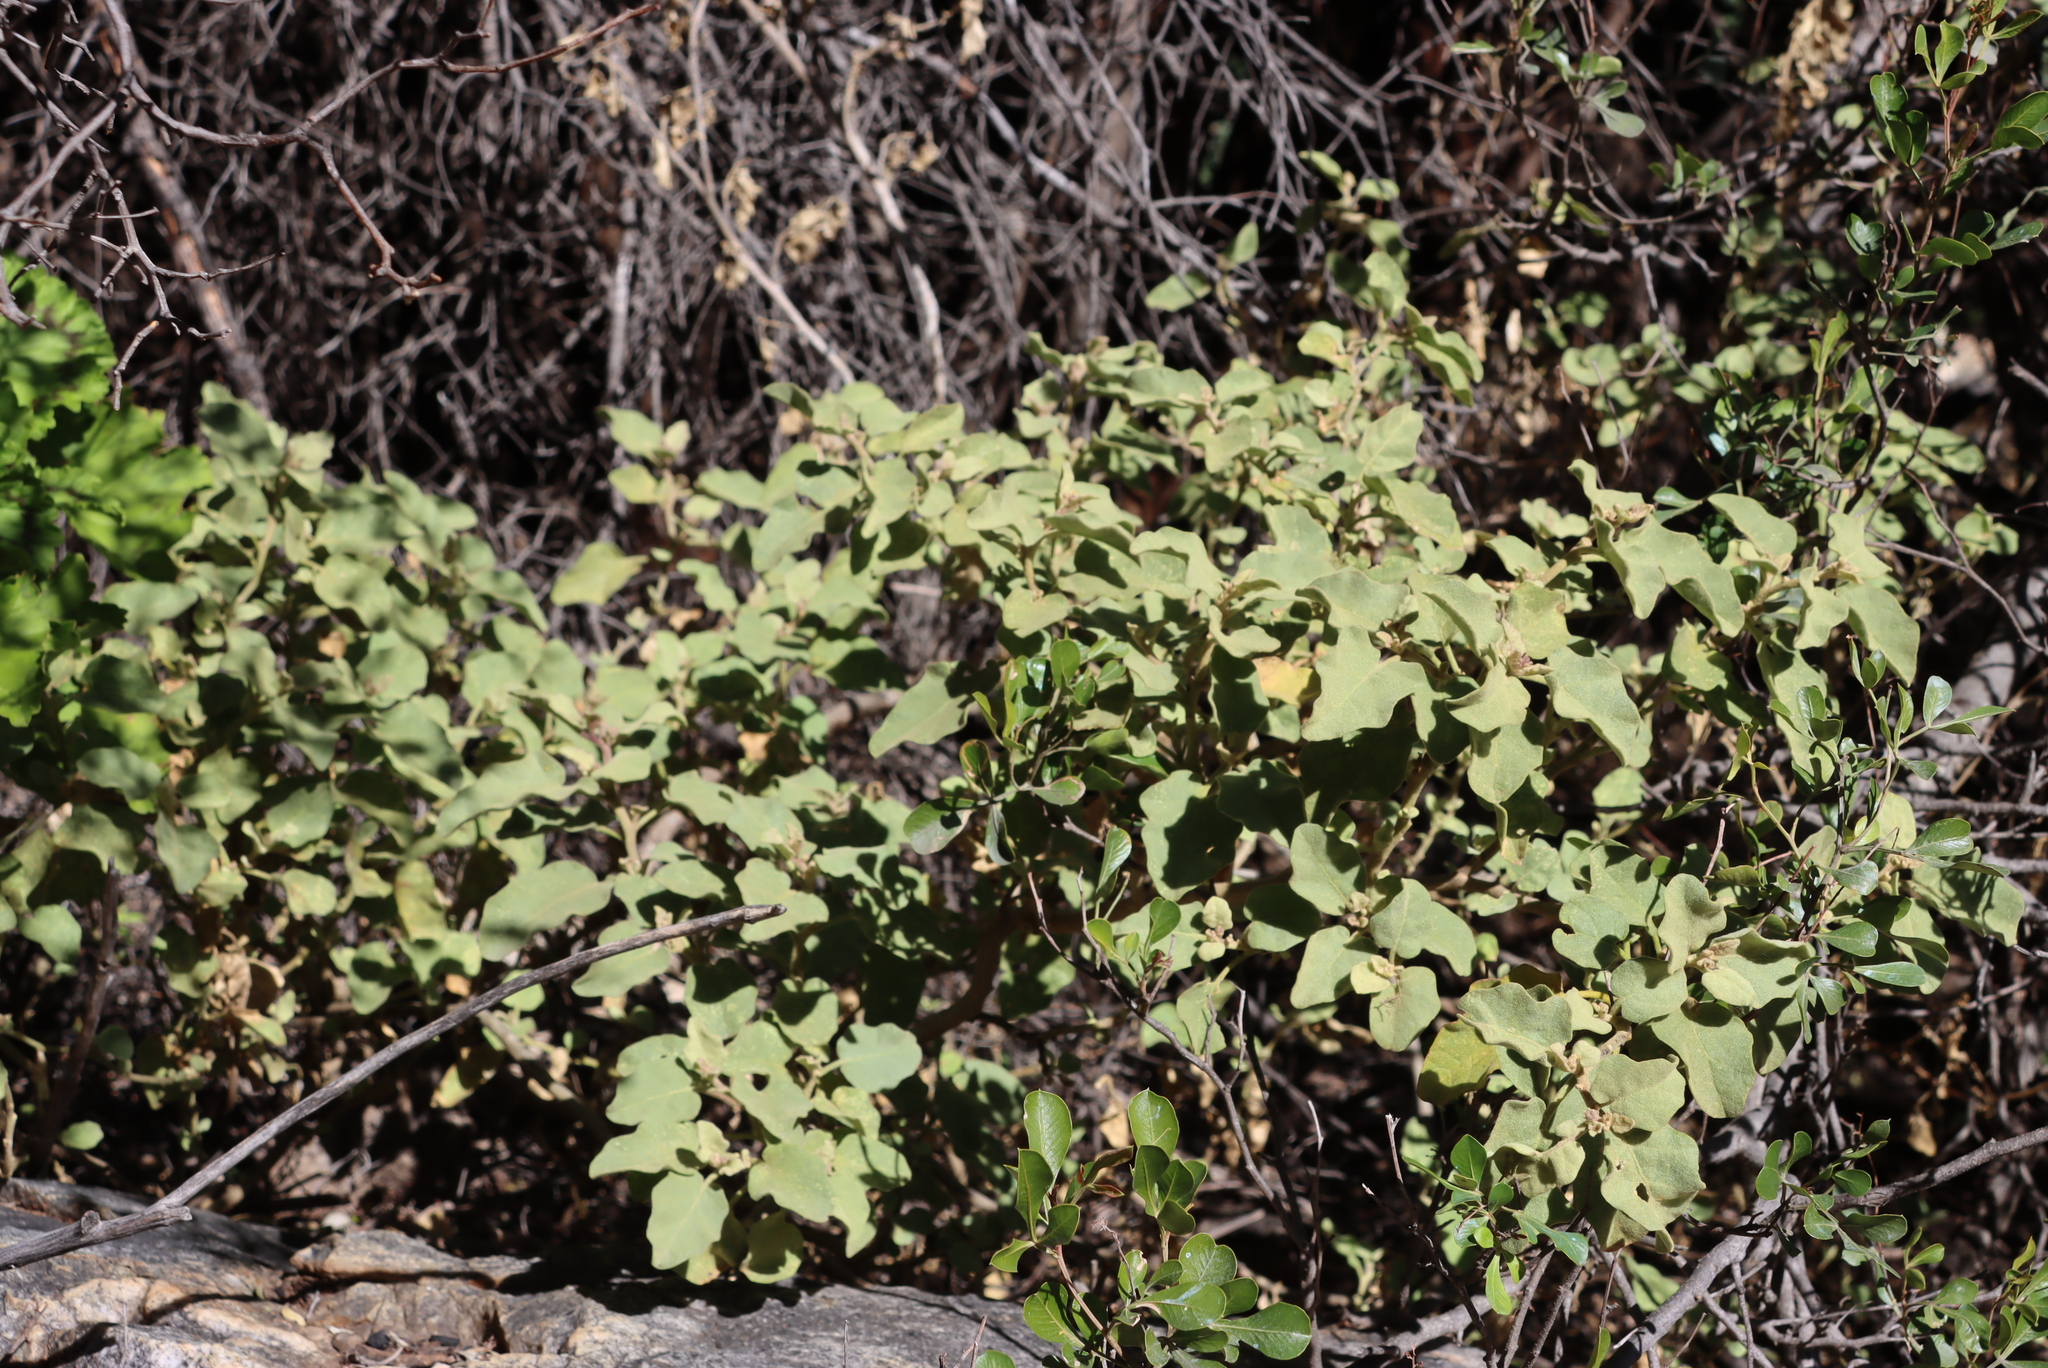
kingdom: Plantae
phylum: Tracheophyta
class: Magnoliopsida
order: Solanales
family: Solanaceae
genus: Solanum
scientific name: Solanum tomentosum
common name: Wild aubergine
